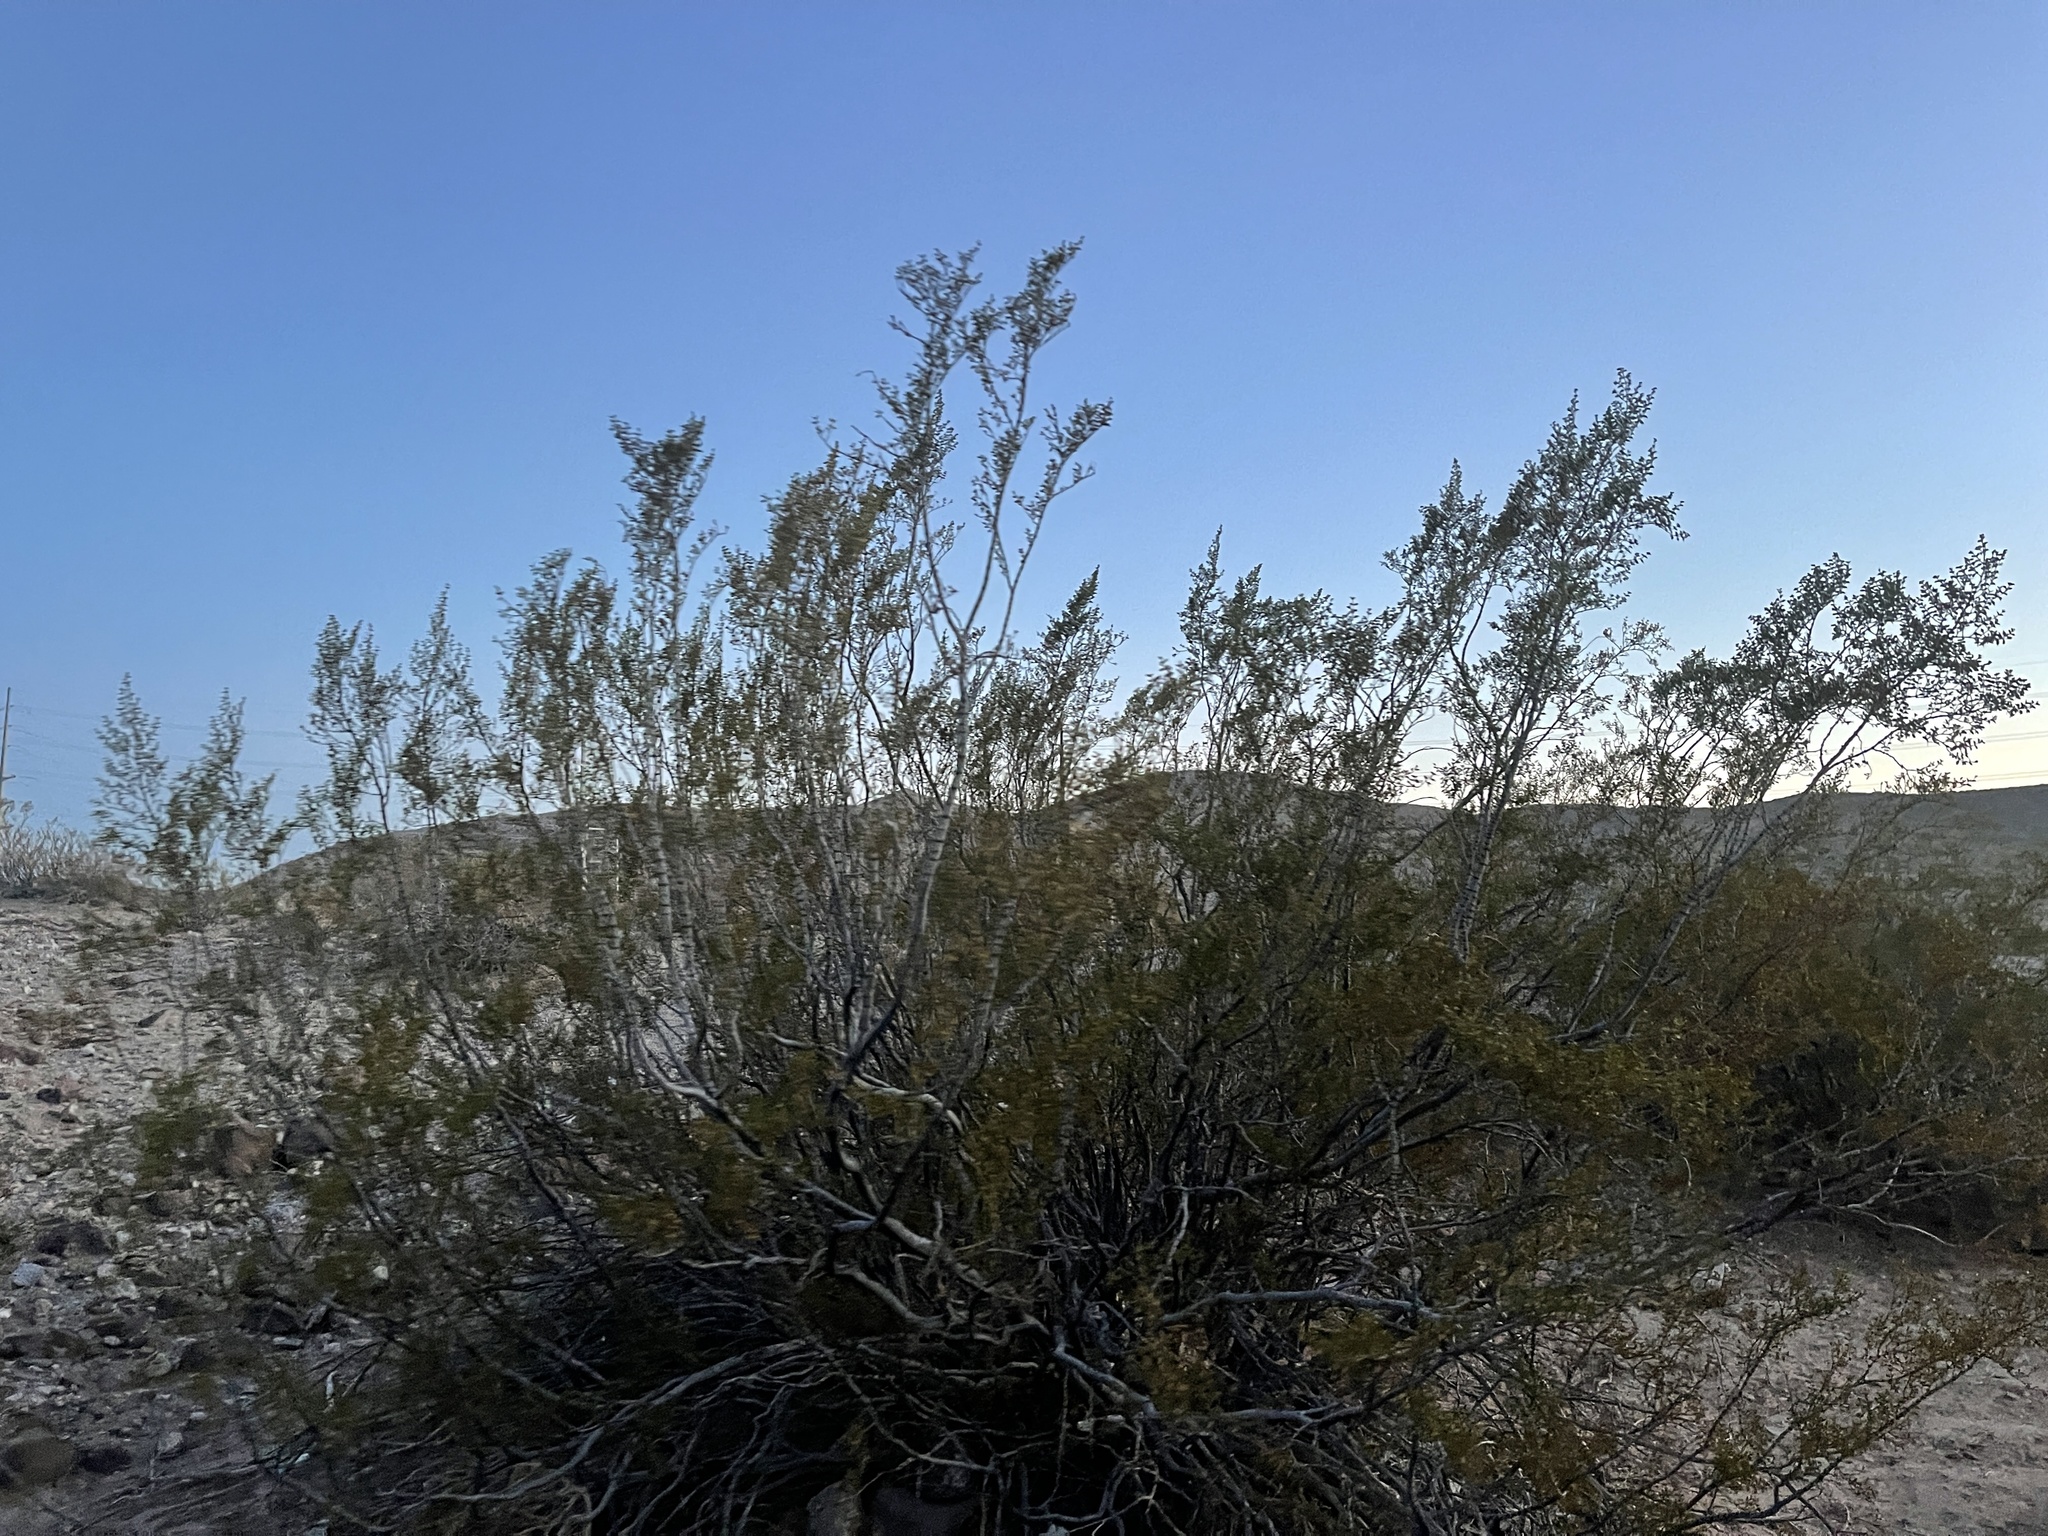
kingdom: Plantae
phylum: Tracheophyta
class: Magnoliopsida
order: Zygophyllales
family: Zygophyllaceae
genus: Larrea
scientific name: Larrea tridentata
